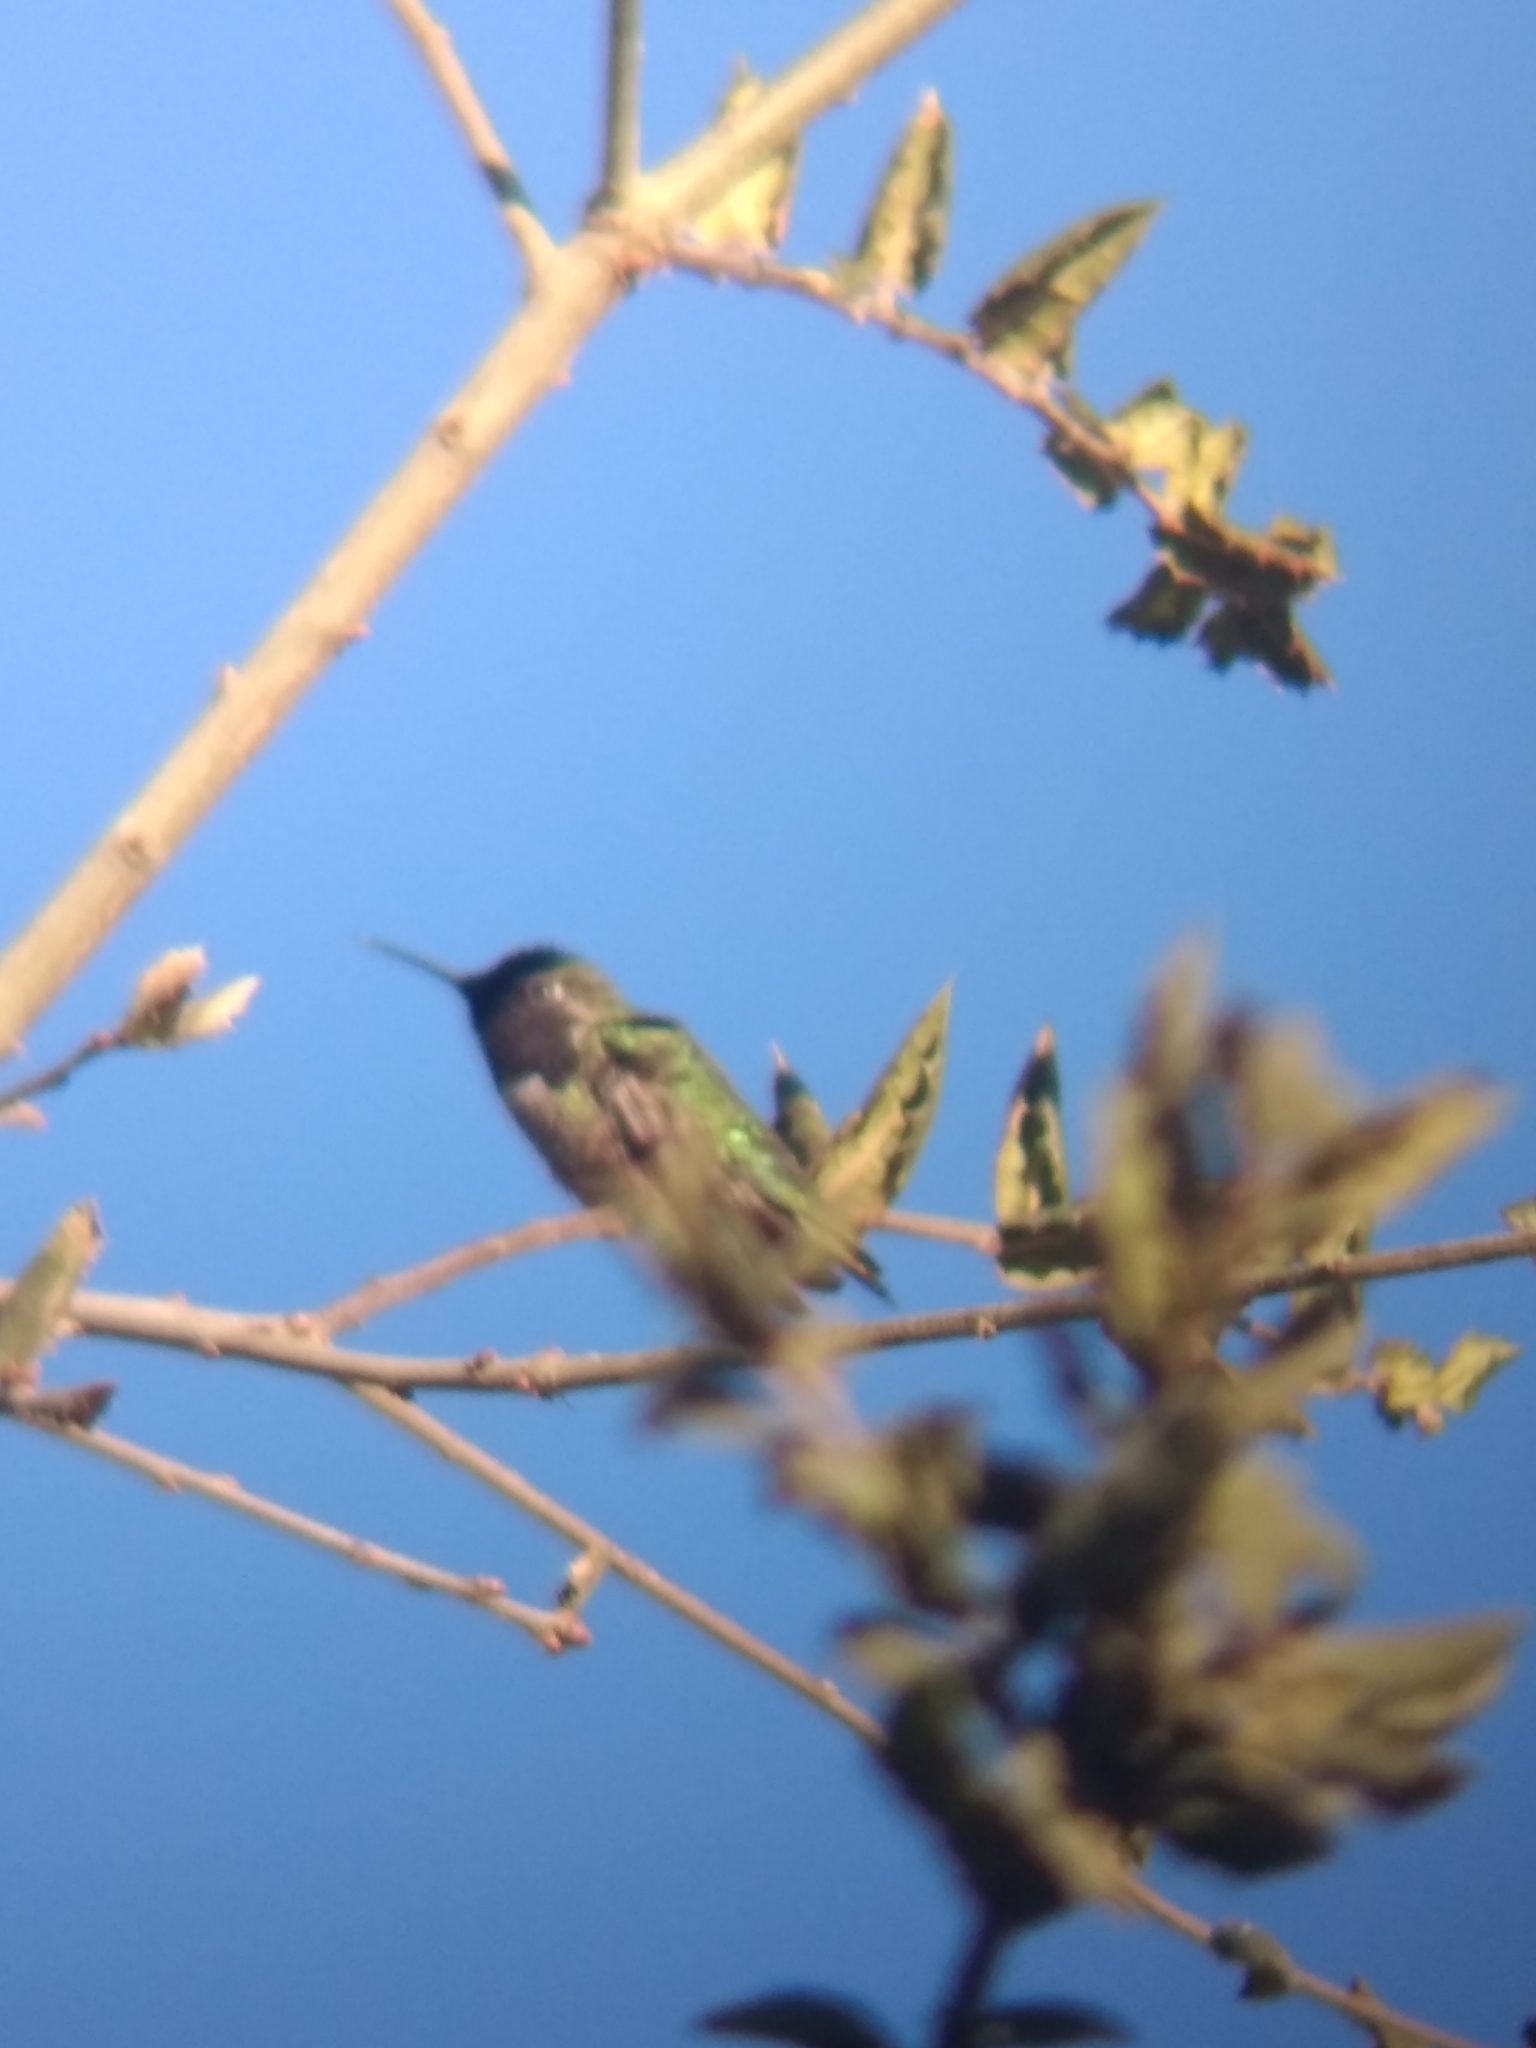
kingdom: Animalia
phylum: Chordata
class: Aves
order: Apodiformes
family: Trochilidae
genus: Calypte
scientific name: Calypte anna
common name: Anna's hummingbird
